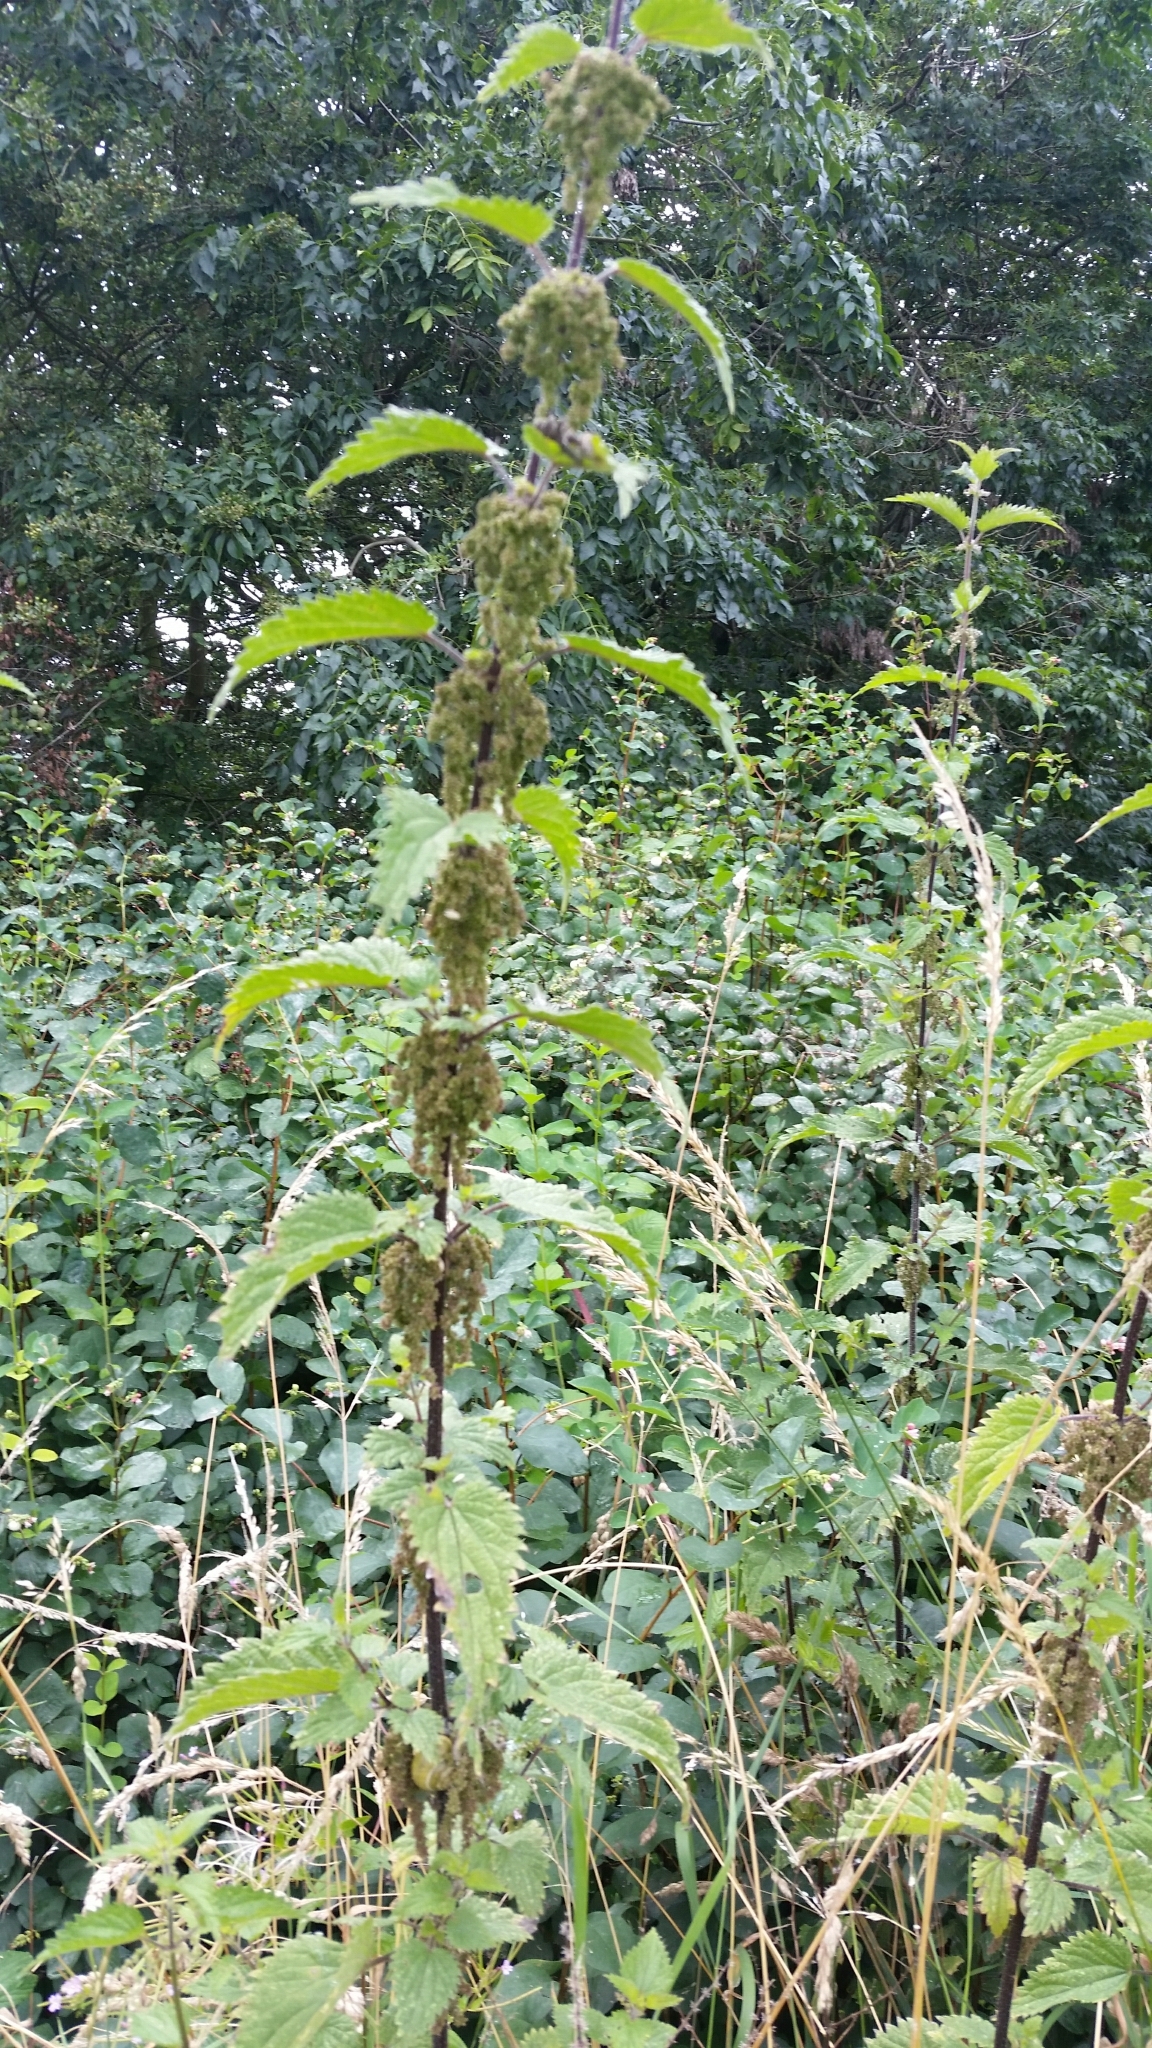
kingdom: Plantae
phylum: Tracheophyta
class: Magnoliopsida
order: Rosales
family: Urticaceae
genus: Urtica
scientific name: Urtica dioica
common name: Common nettle
